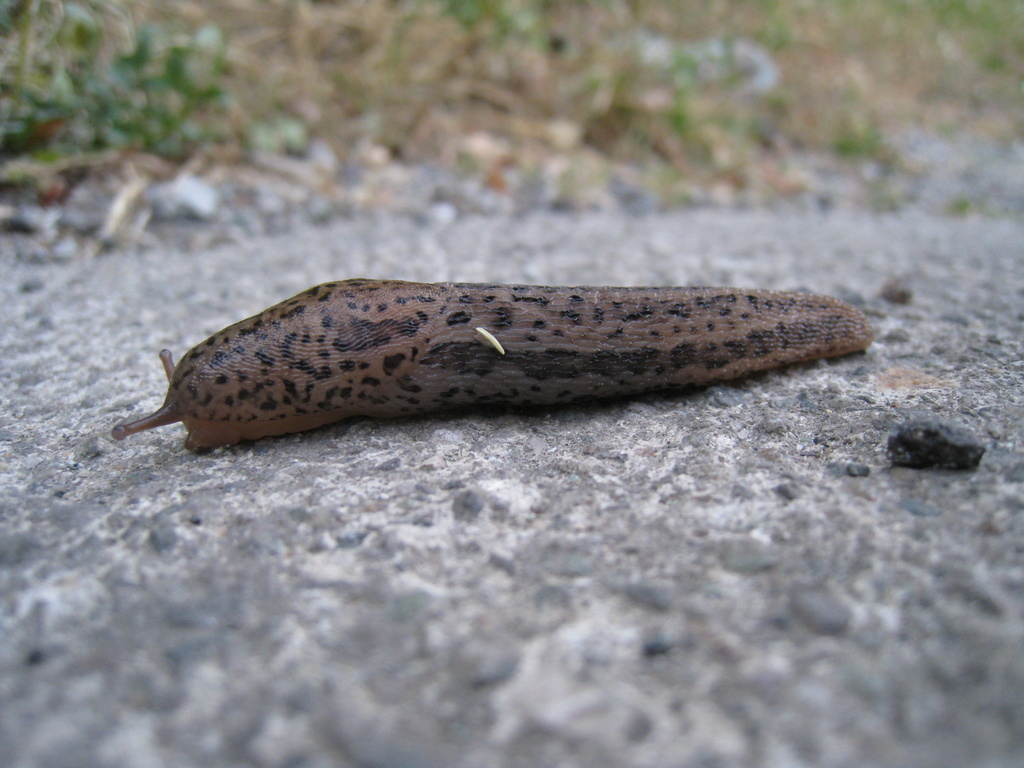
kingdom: Animalia
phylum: Mollusca
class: Gastropoda
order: Stylommatophora
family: Limacidae
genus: Limax
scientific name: Limax maximus
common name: Great grey slug
